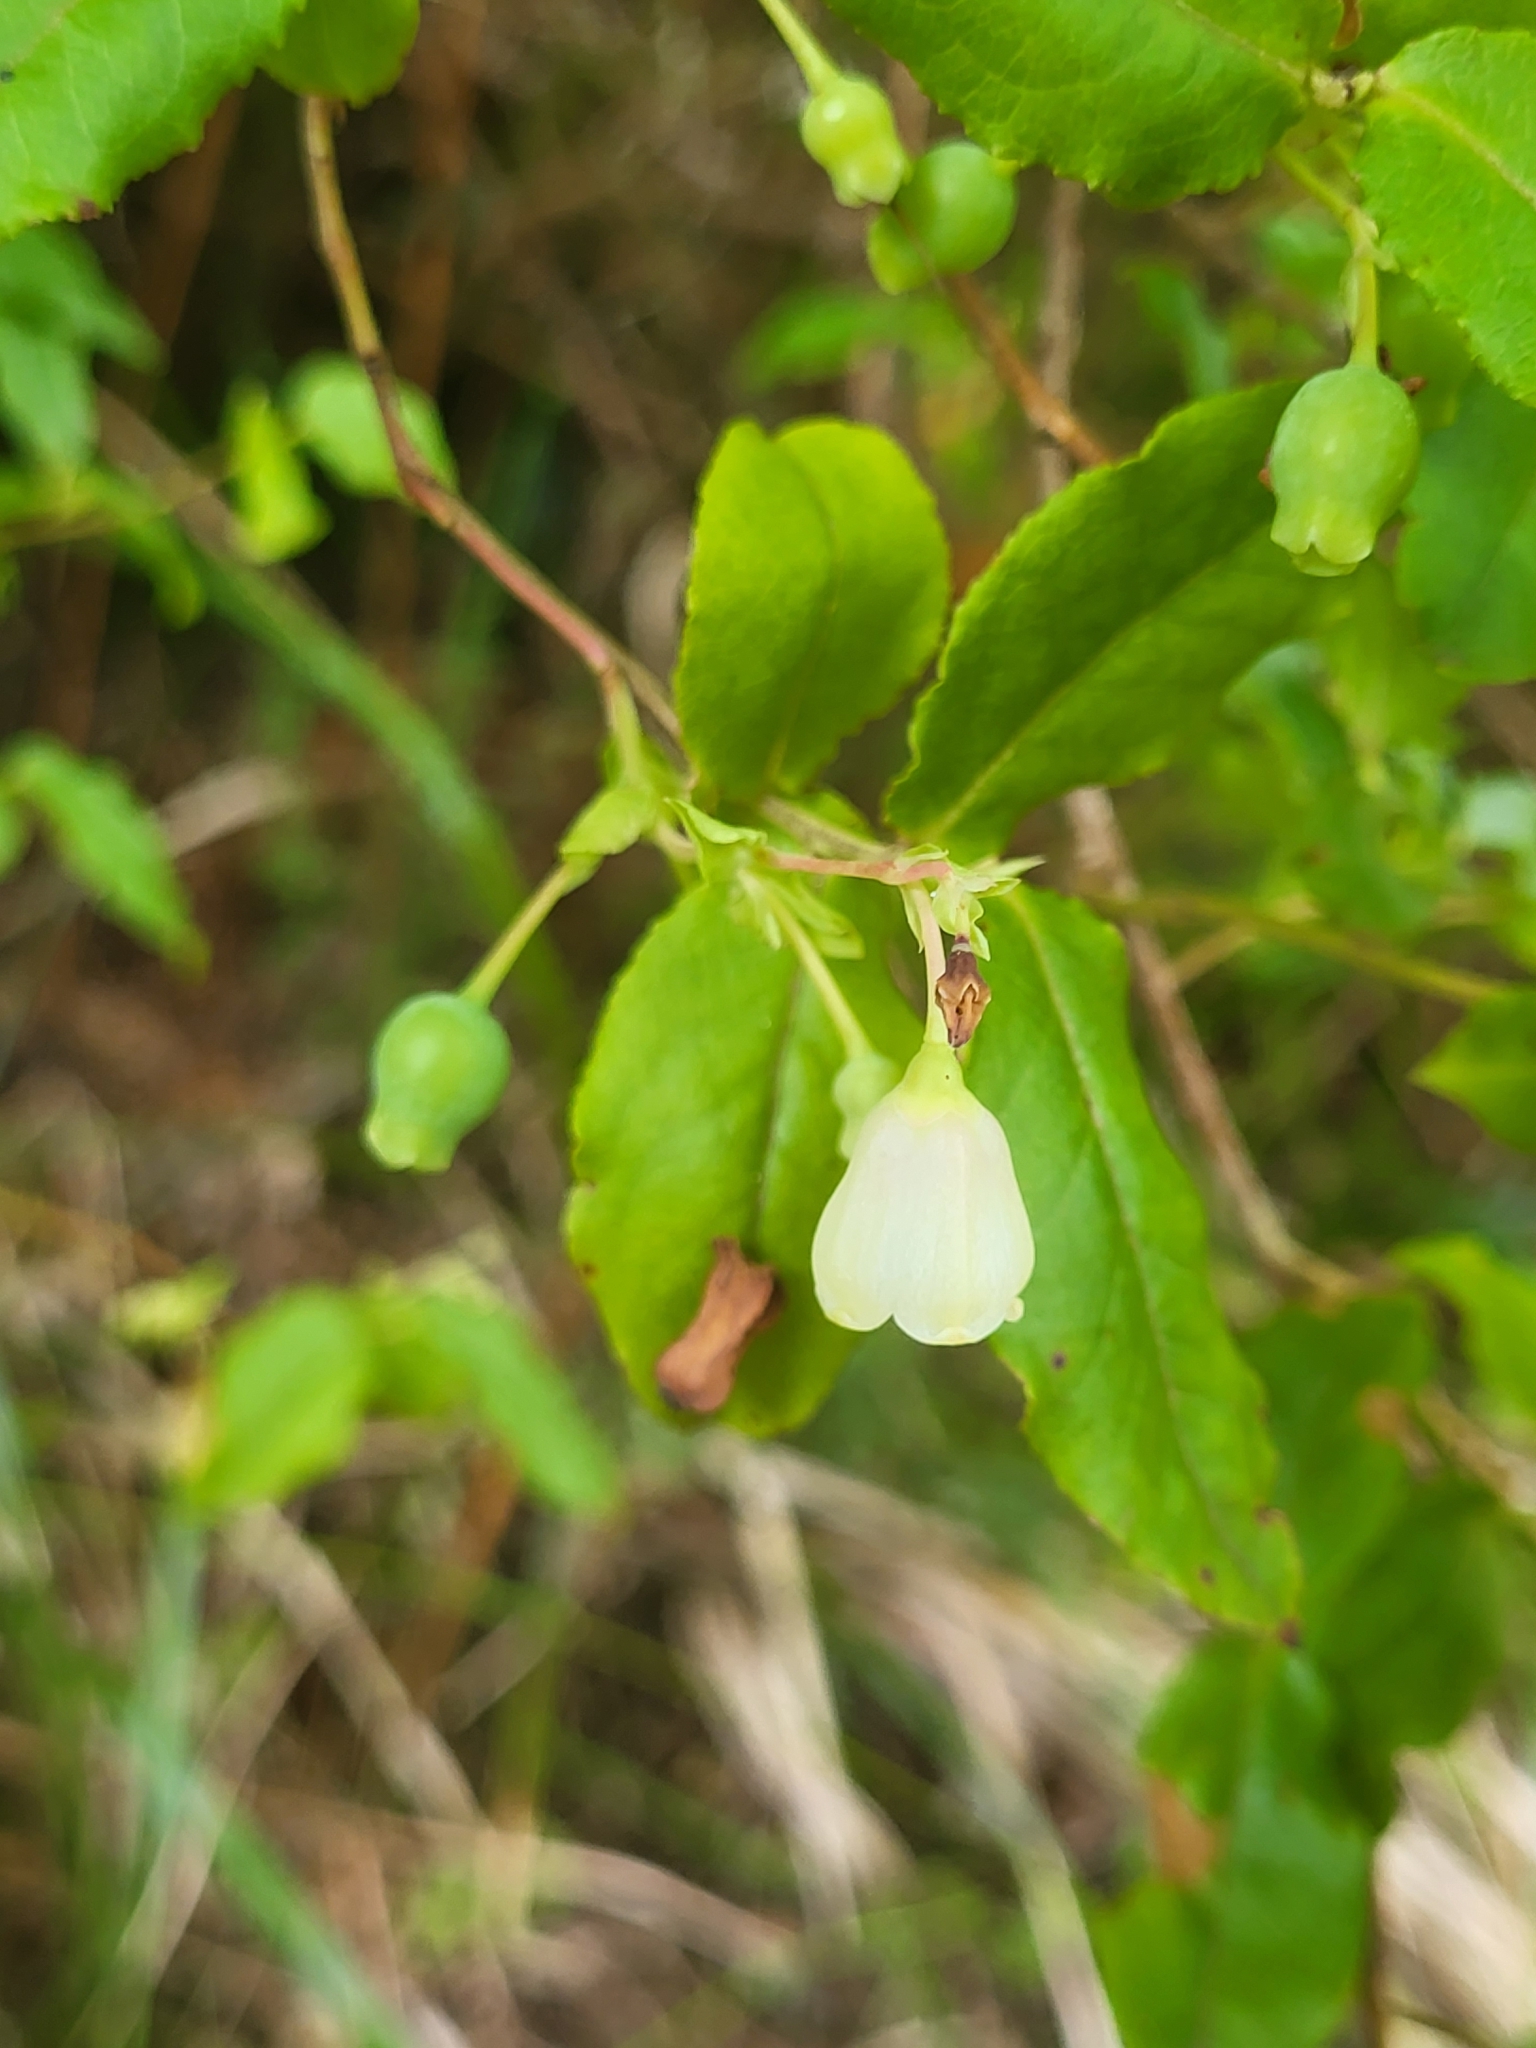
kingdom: Plantae
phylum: Tracheophyta
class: Magnoliopsida
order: Ericales
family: Ericaceae
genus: Vaccinium
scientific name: Vaccinium padifolium
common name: Madeiran blueberry
